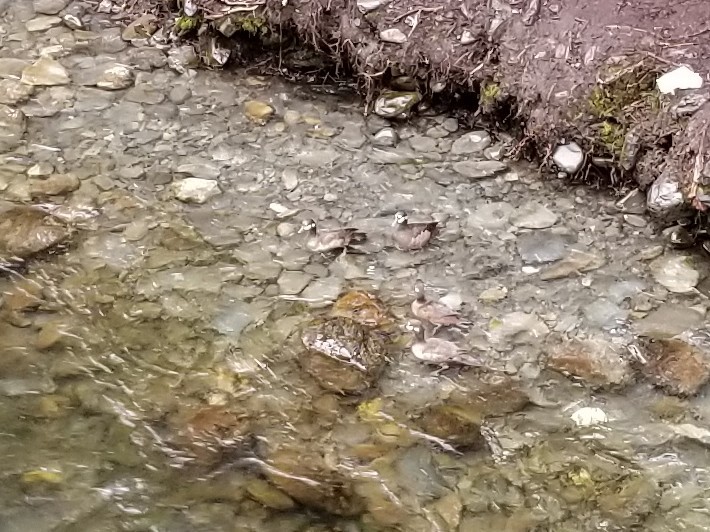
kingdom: Animalia
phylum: Chordata
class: Aves
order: Anseriformes
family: Anatidae
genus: Histrionicus
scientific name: Histrionicus histrionicus
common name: Harlequin duck
